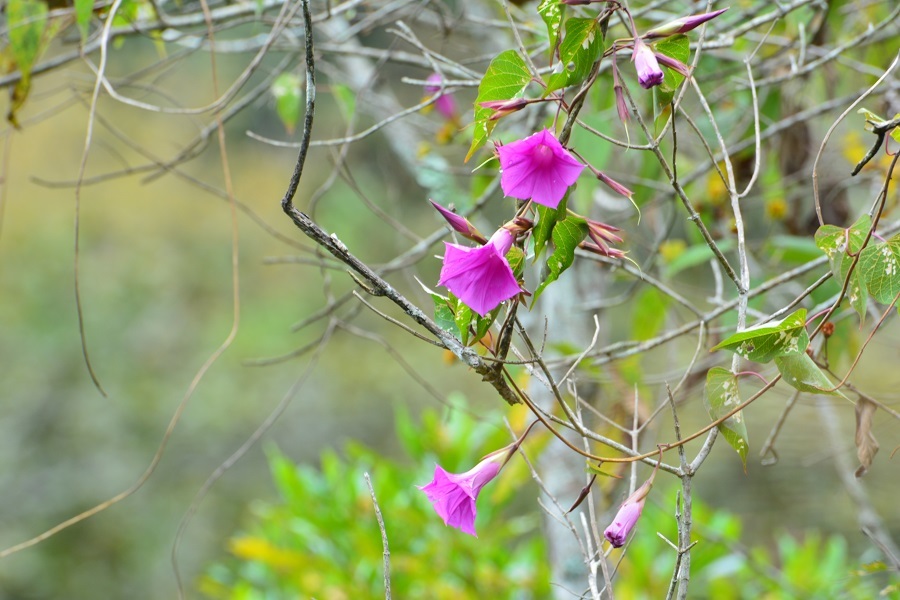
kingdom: Plantae
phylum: Tracheophyta
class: Magnoliopsida
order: Solanales
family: Convolvulaceae
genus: Ipomoea
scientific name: Ipomoea bernoulliana
